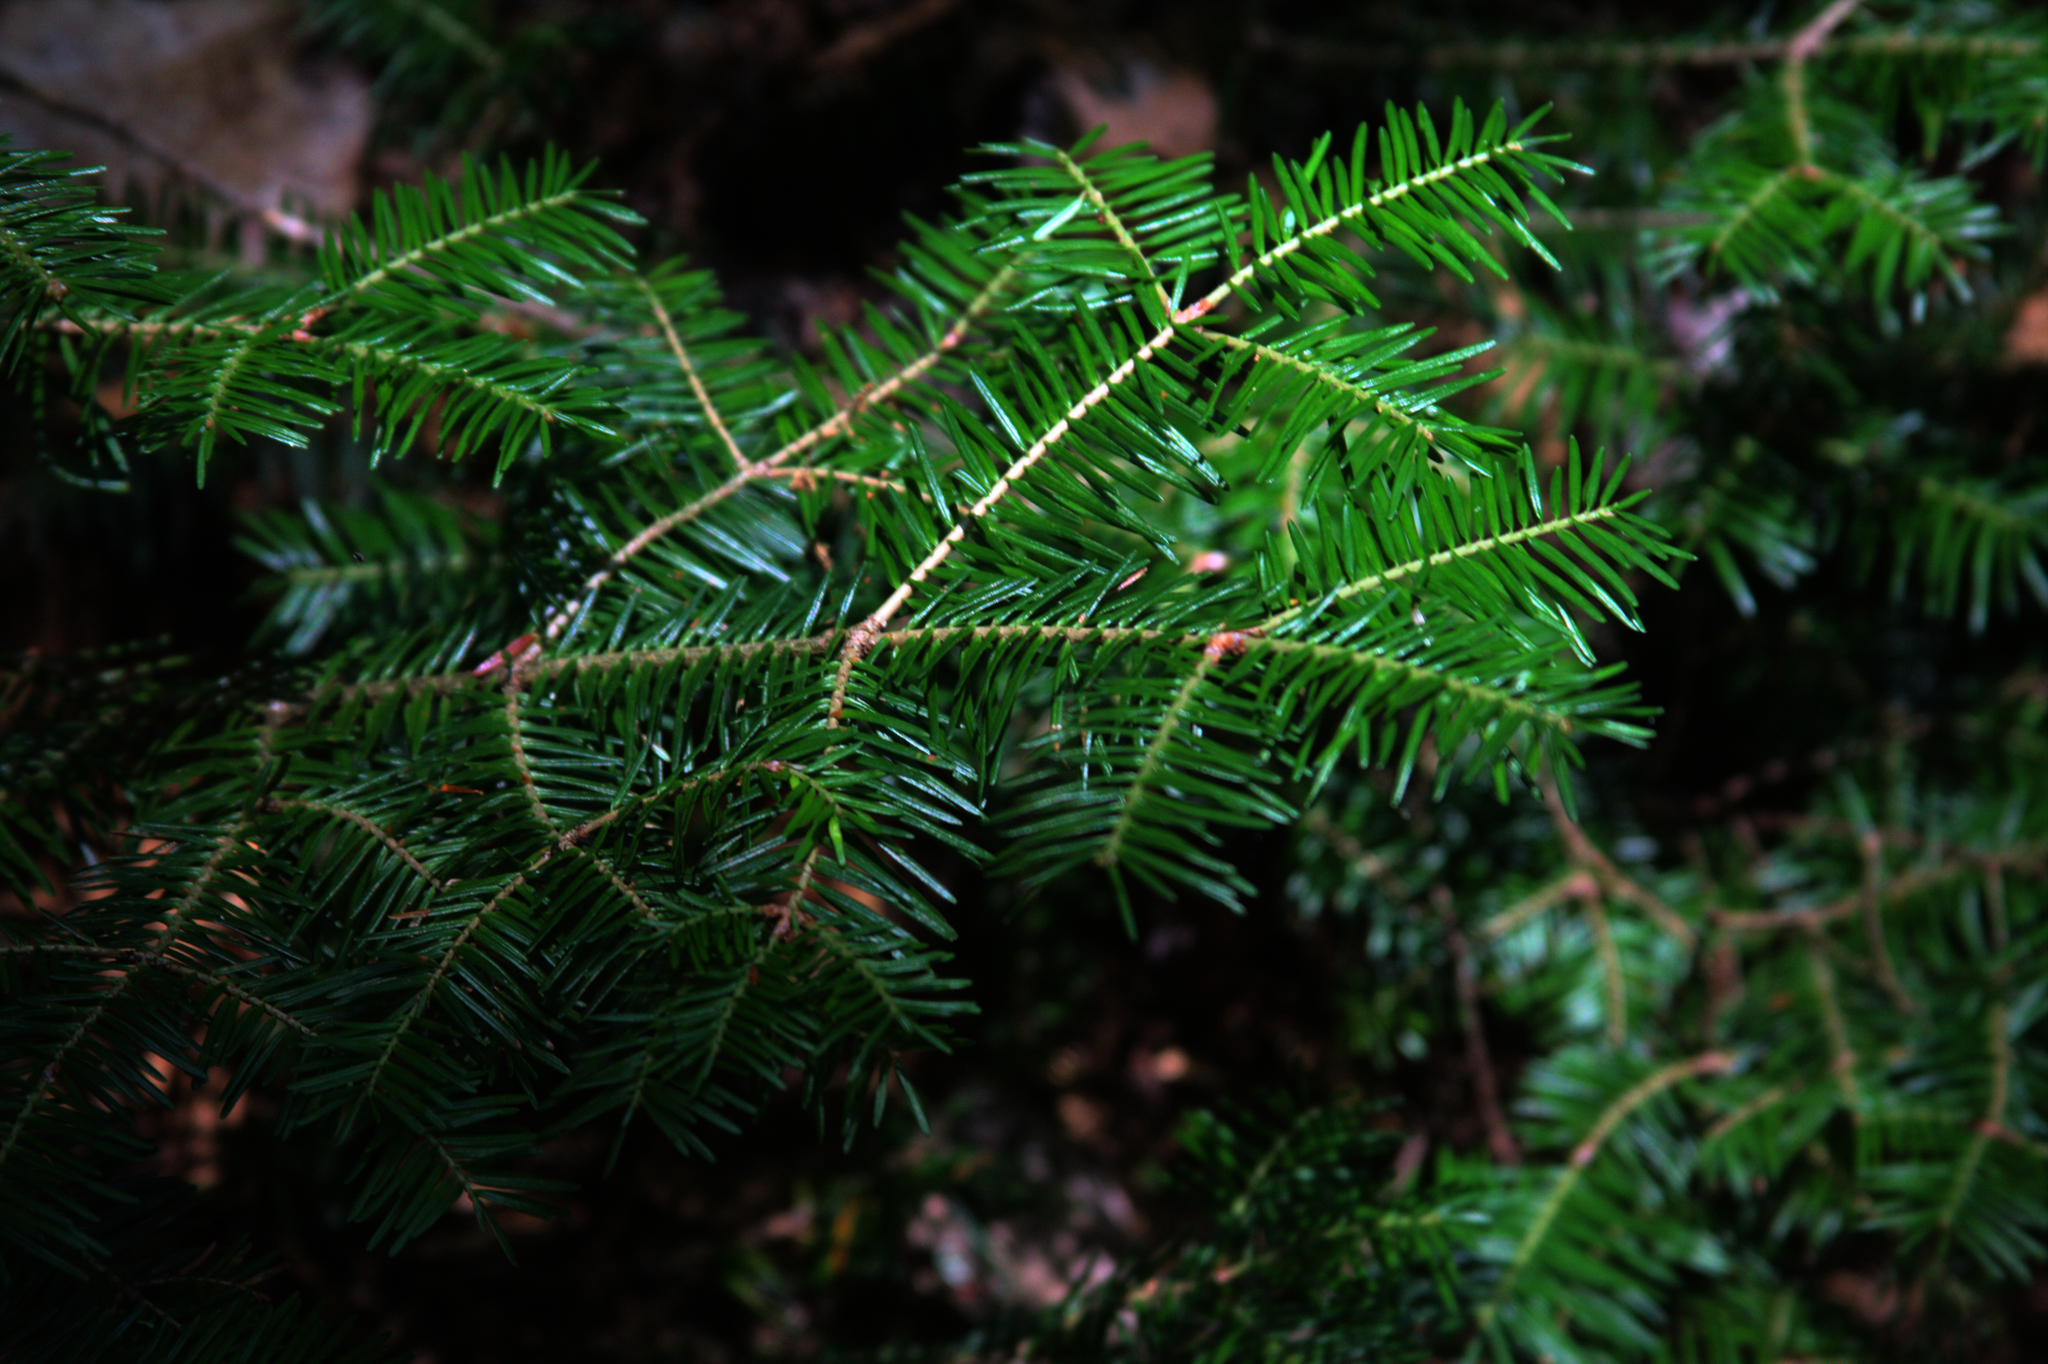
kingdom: Plantae
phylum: Tracheophyta
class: Pinopsida
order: Pinales
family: Pinaceae
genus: Abies
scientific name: Abies balsamea
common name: Balsam fir
